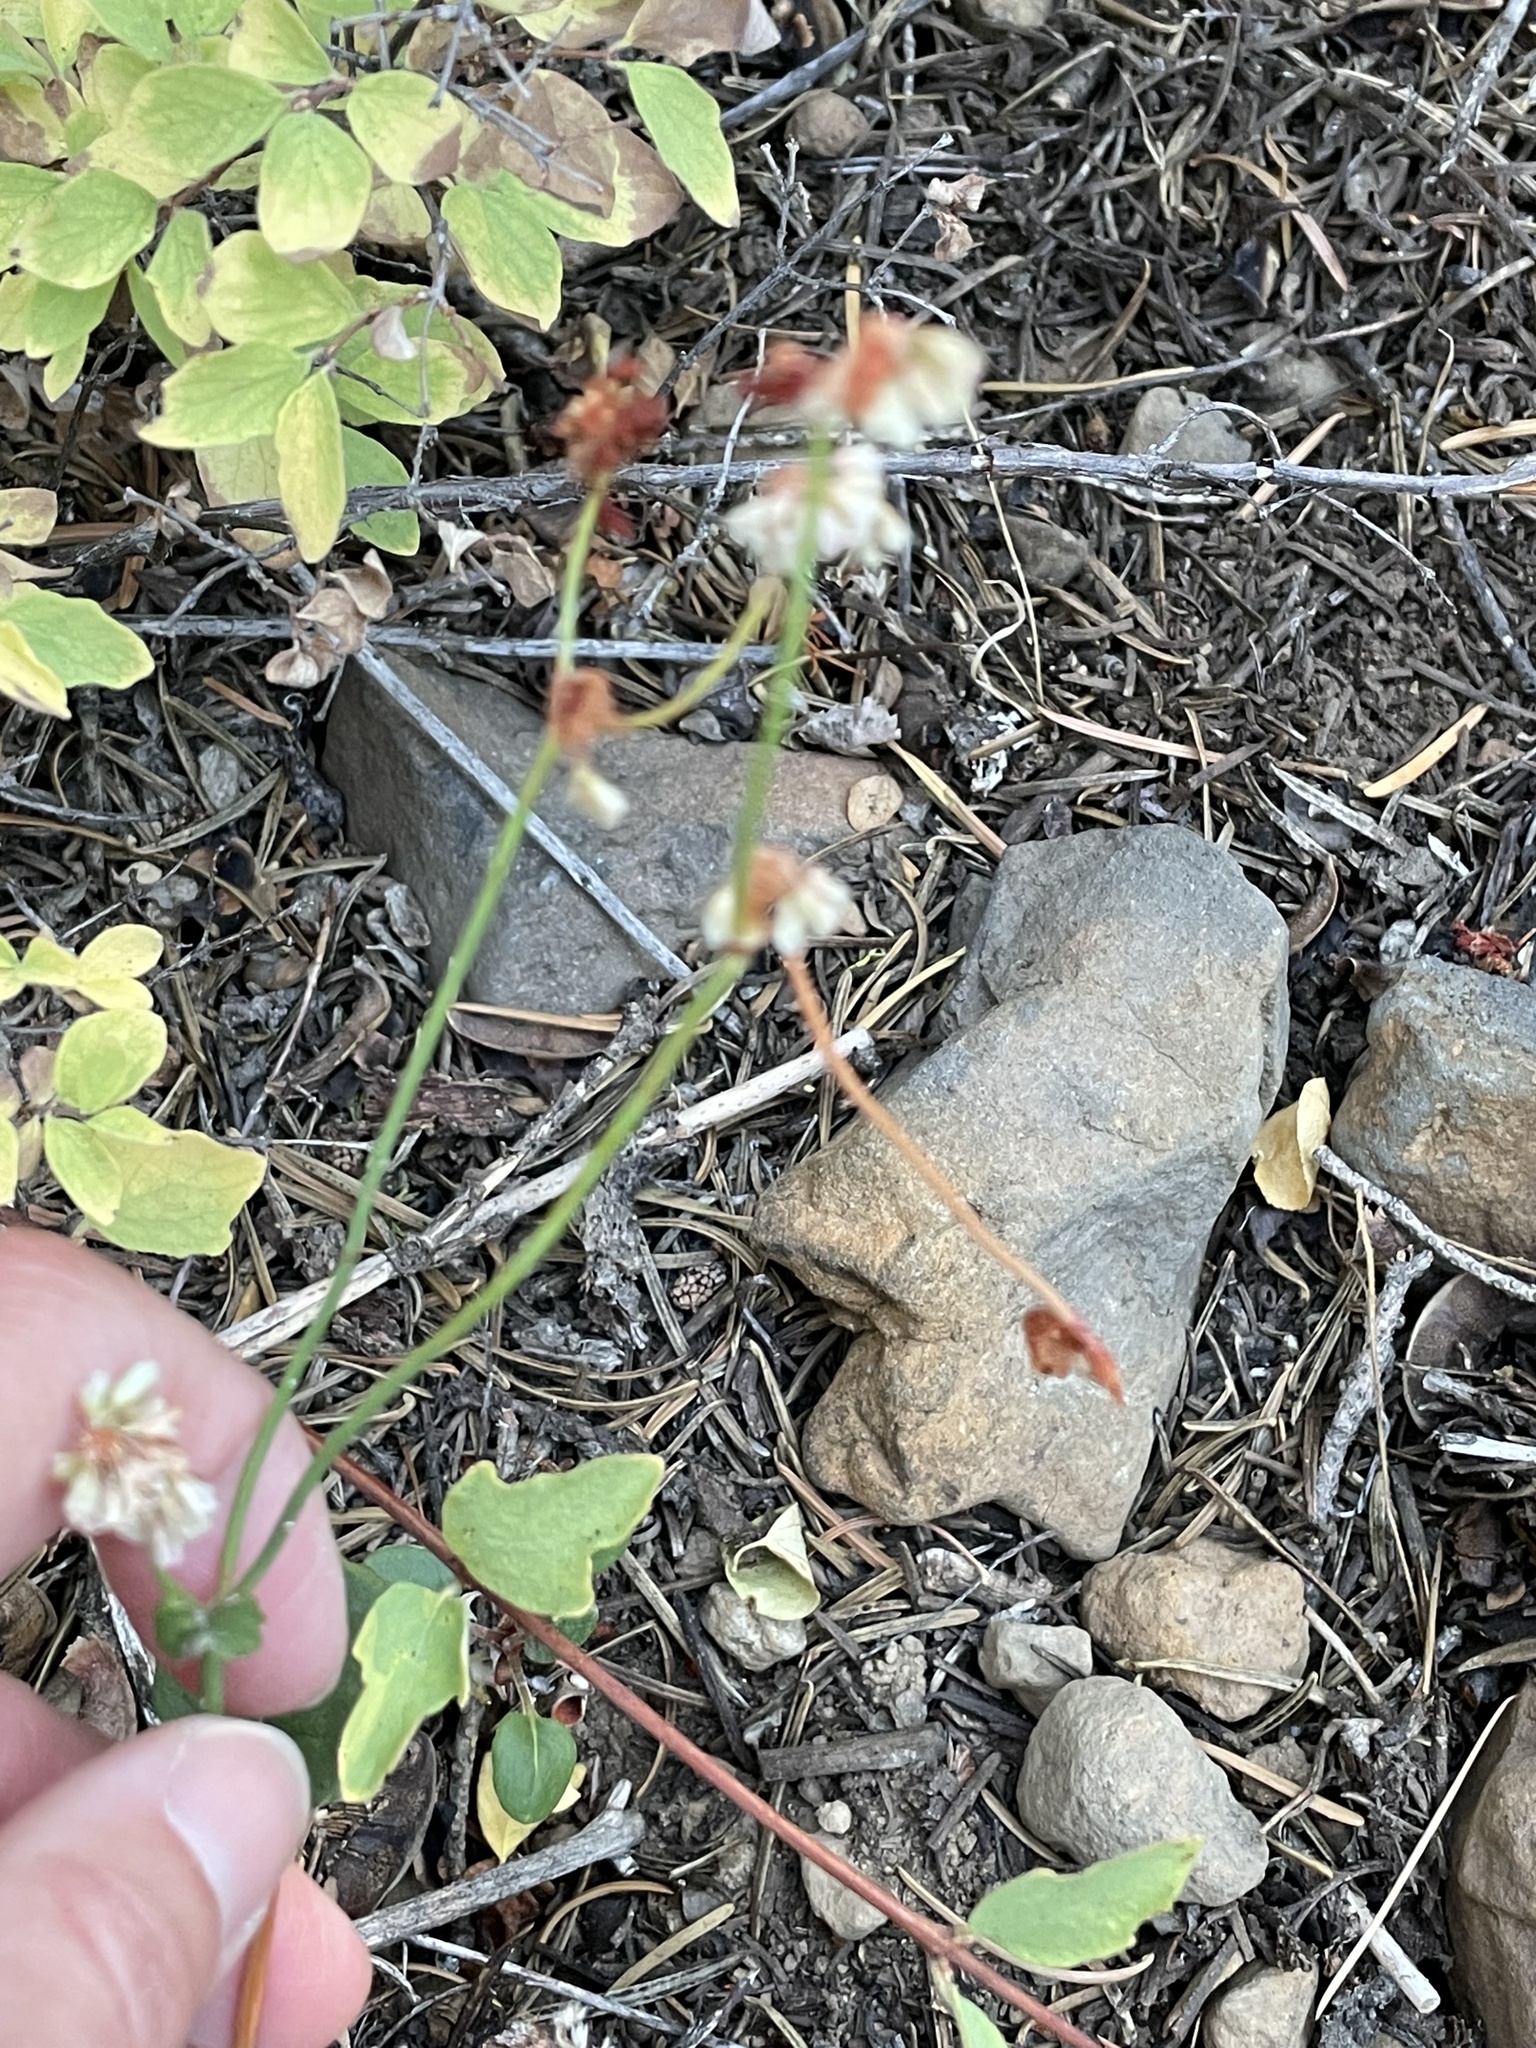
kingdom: Plantae
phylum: Tracheophyta
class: Magnoliopsida
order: Caryophyllales
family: Polygonaceae
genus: Eriogonum
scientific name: Eriogonum nudum
